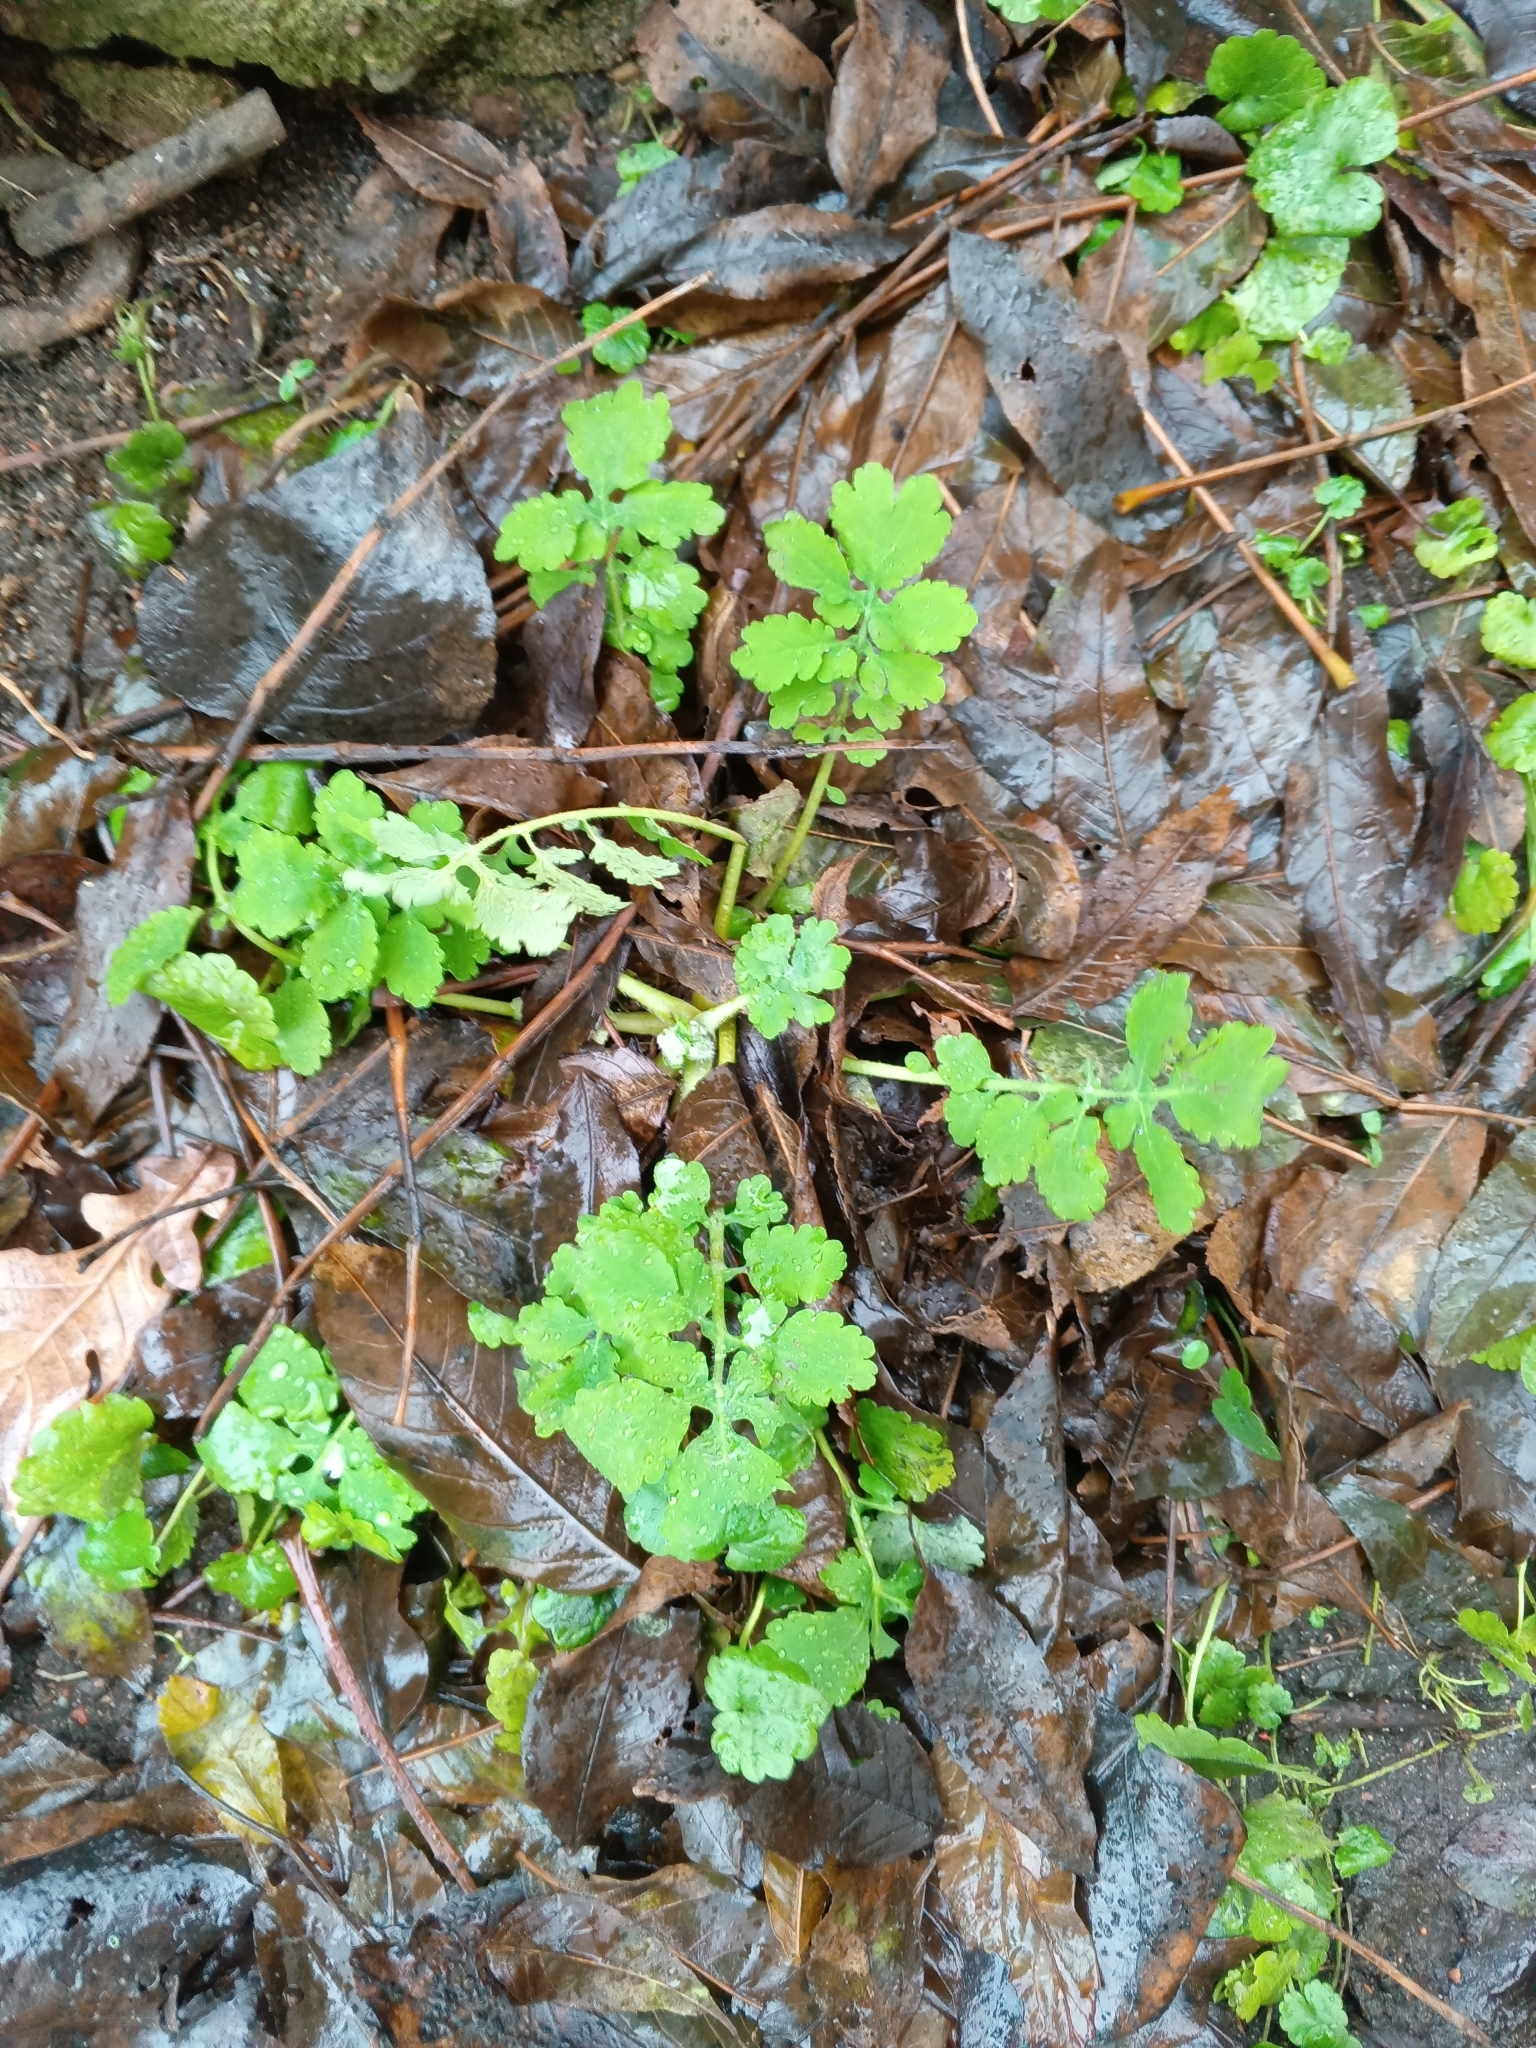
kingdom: Plantae
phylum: Tracheophyta
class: Magnoliopsida
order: Ranunculales
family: Papaveraceae
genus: Chelidonium
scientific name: Chelidonium majus
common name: Greater celandine
